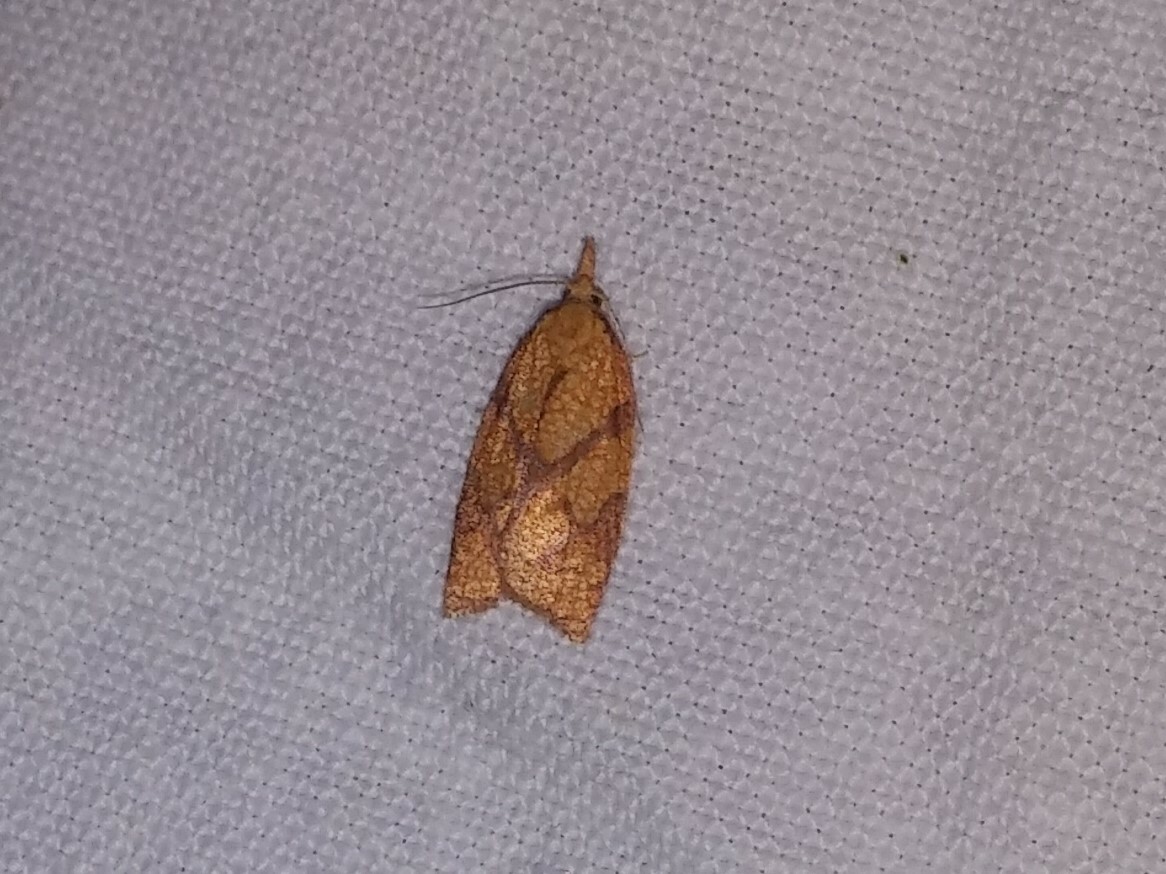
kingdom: Animalia
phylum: Arthropoda
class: Insecta
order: Lepidoptera
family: Tortricidae
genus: Cenopis
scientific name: Cenopis reticulatana
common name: Reticulated fruitworm moth
